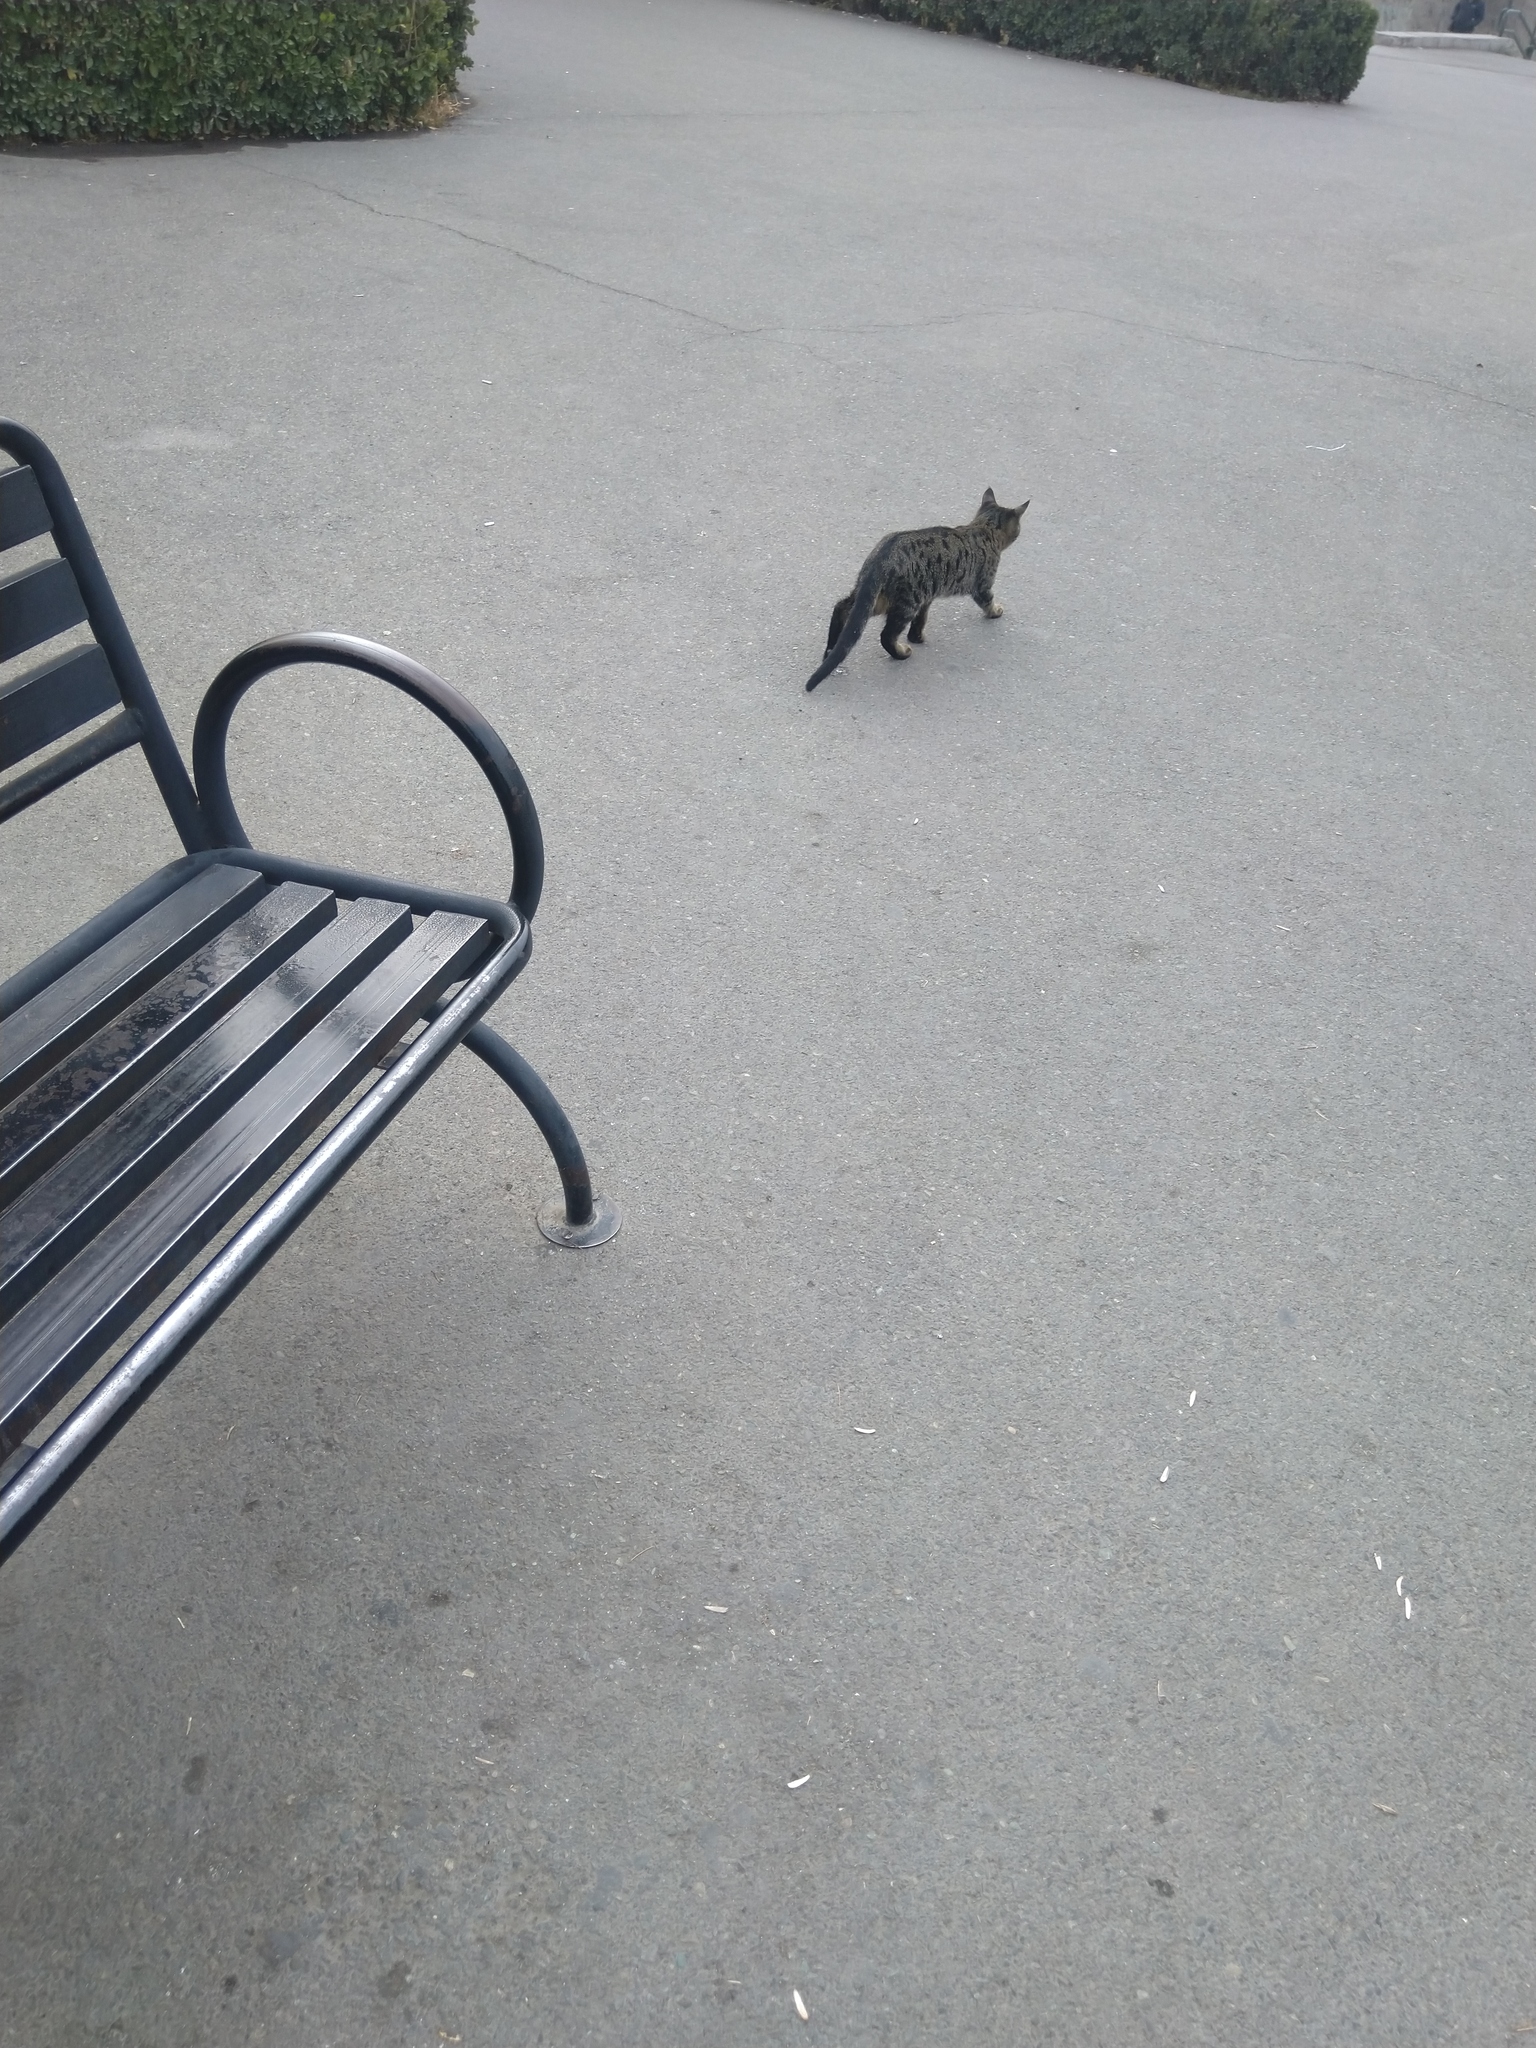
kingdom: Animalia
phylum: Chordata
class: Mammalia
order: Carnivora
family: Felidae
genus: Felis
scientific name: Felis catus
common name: Domestic cat
